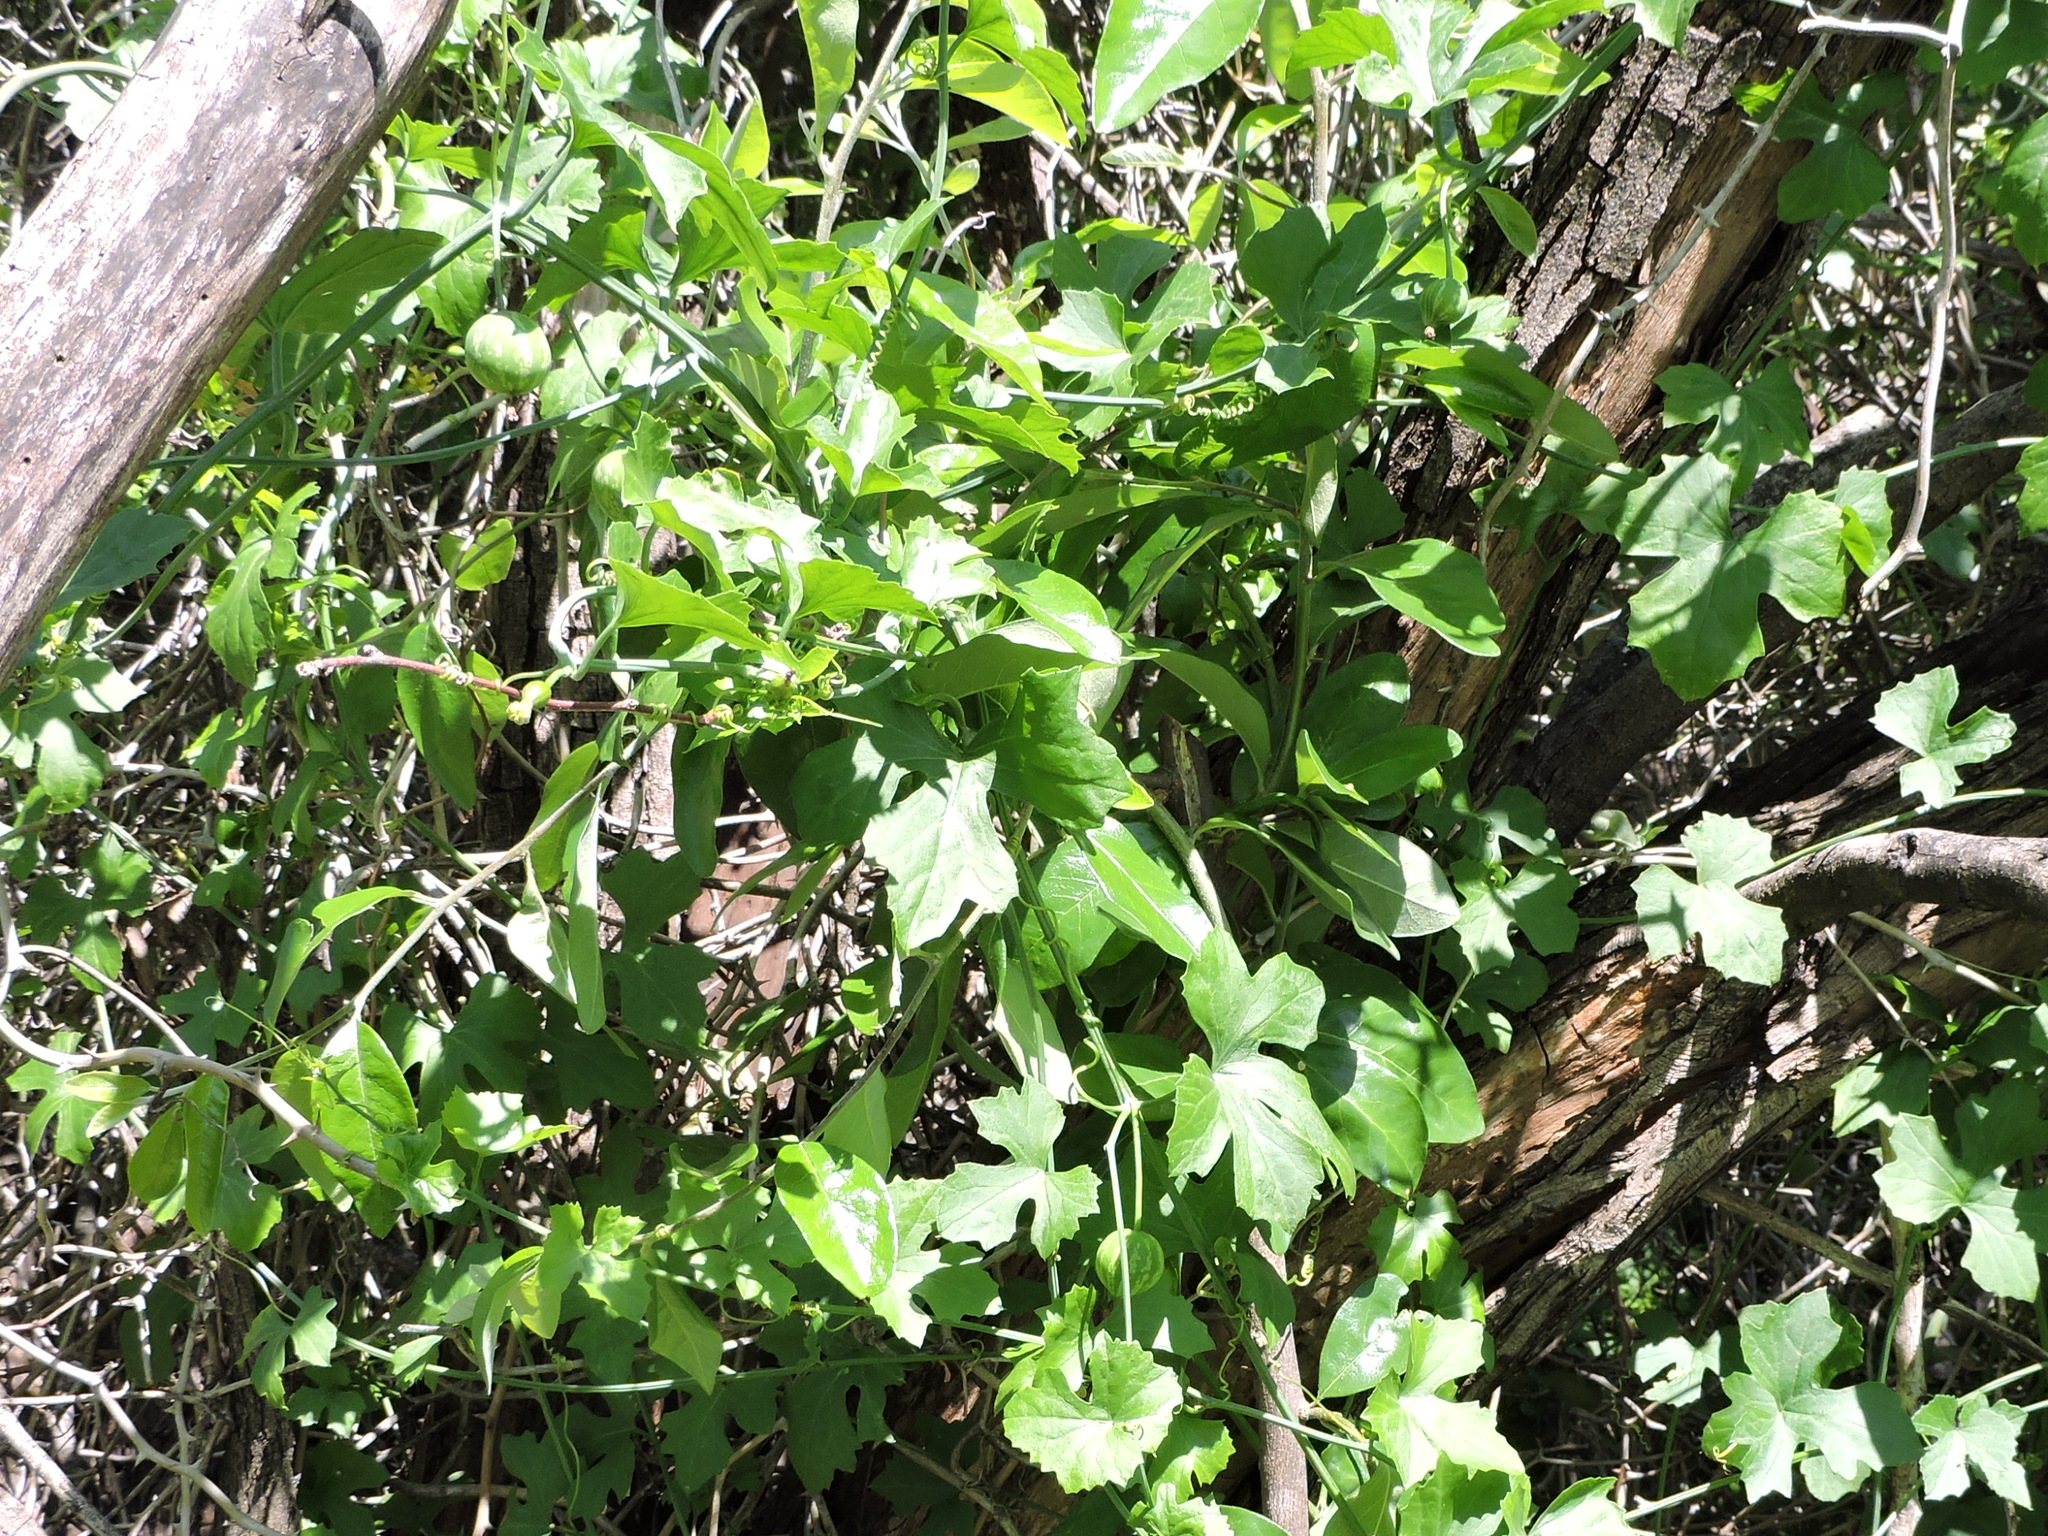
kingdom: Plantae
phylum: Tracheophyta
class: Magnoliopsida
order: Cucurbitales
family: Cucurbitaceae
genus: Ibervillea
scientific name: Ibervillea lindheimeri
